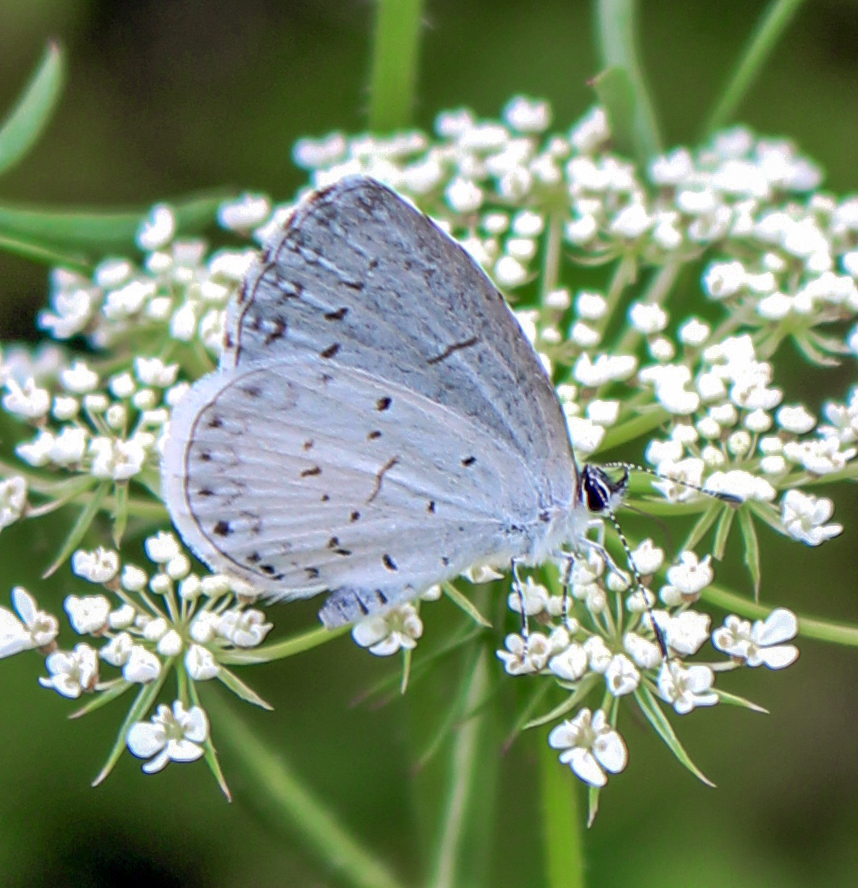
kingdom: Animalia
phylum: Arthropoda
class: Insecta
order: Lepidoptera
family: Lycaenidae
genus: Cyaniris
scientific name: Cyaniris neglecta
